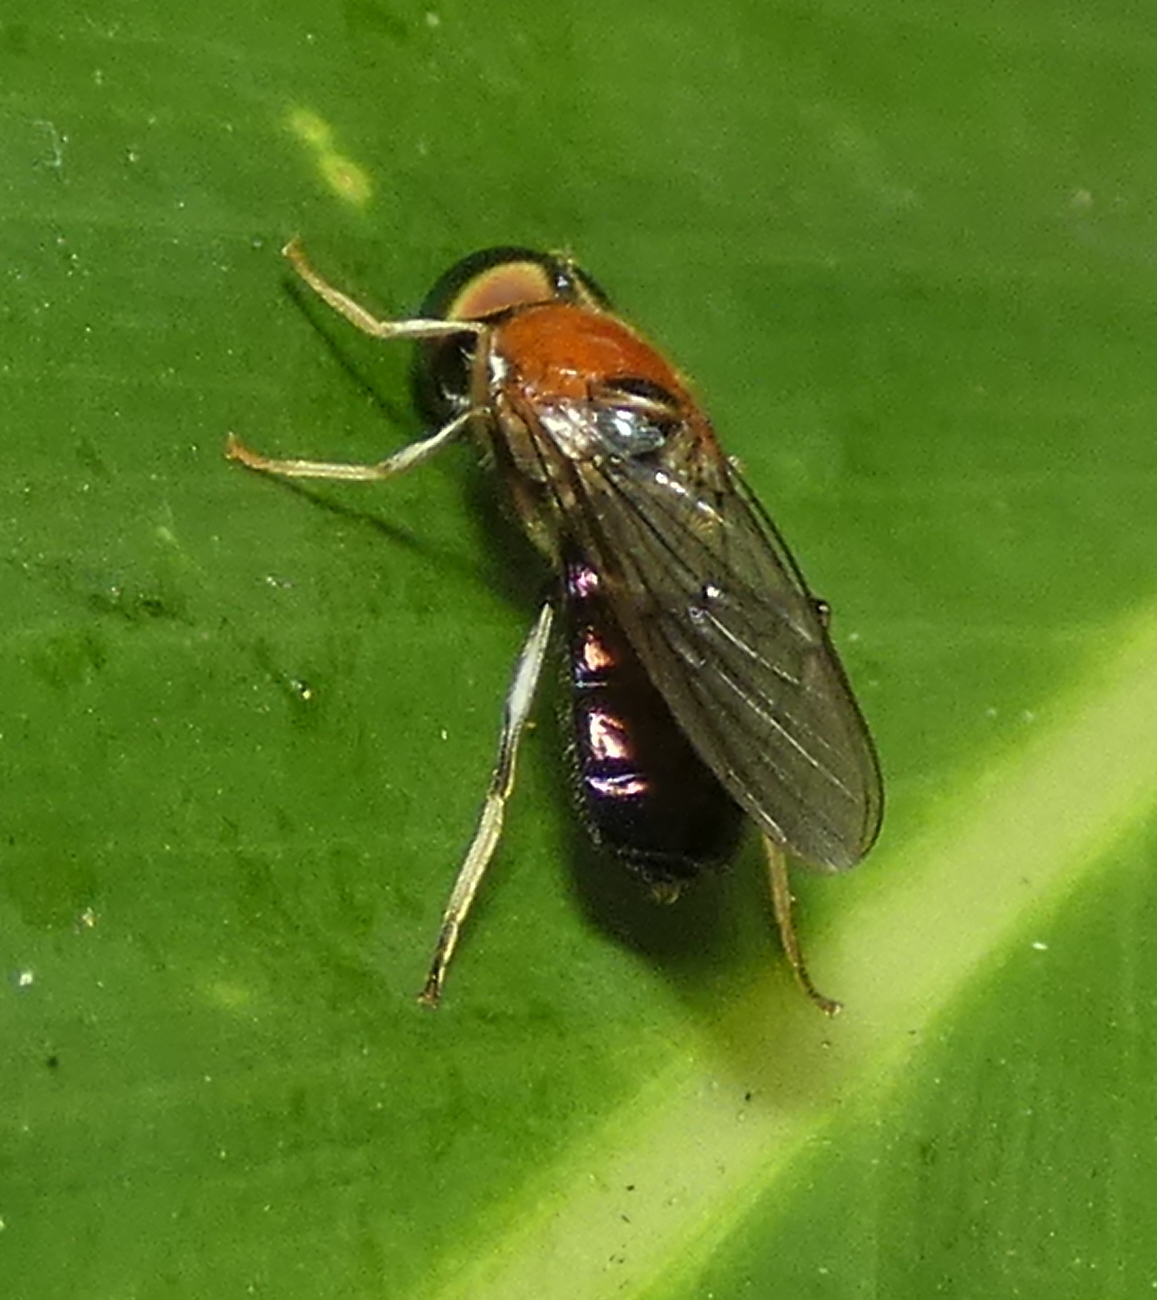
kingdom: Animalia
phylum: Arthropoda
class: Insecta
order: Diptera
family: Stratiomyidae
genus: Sargus
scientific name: Sargus thoracicus
